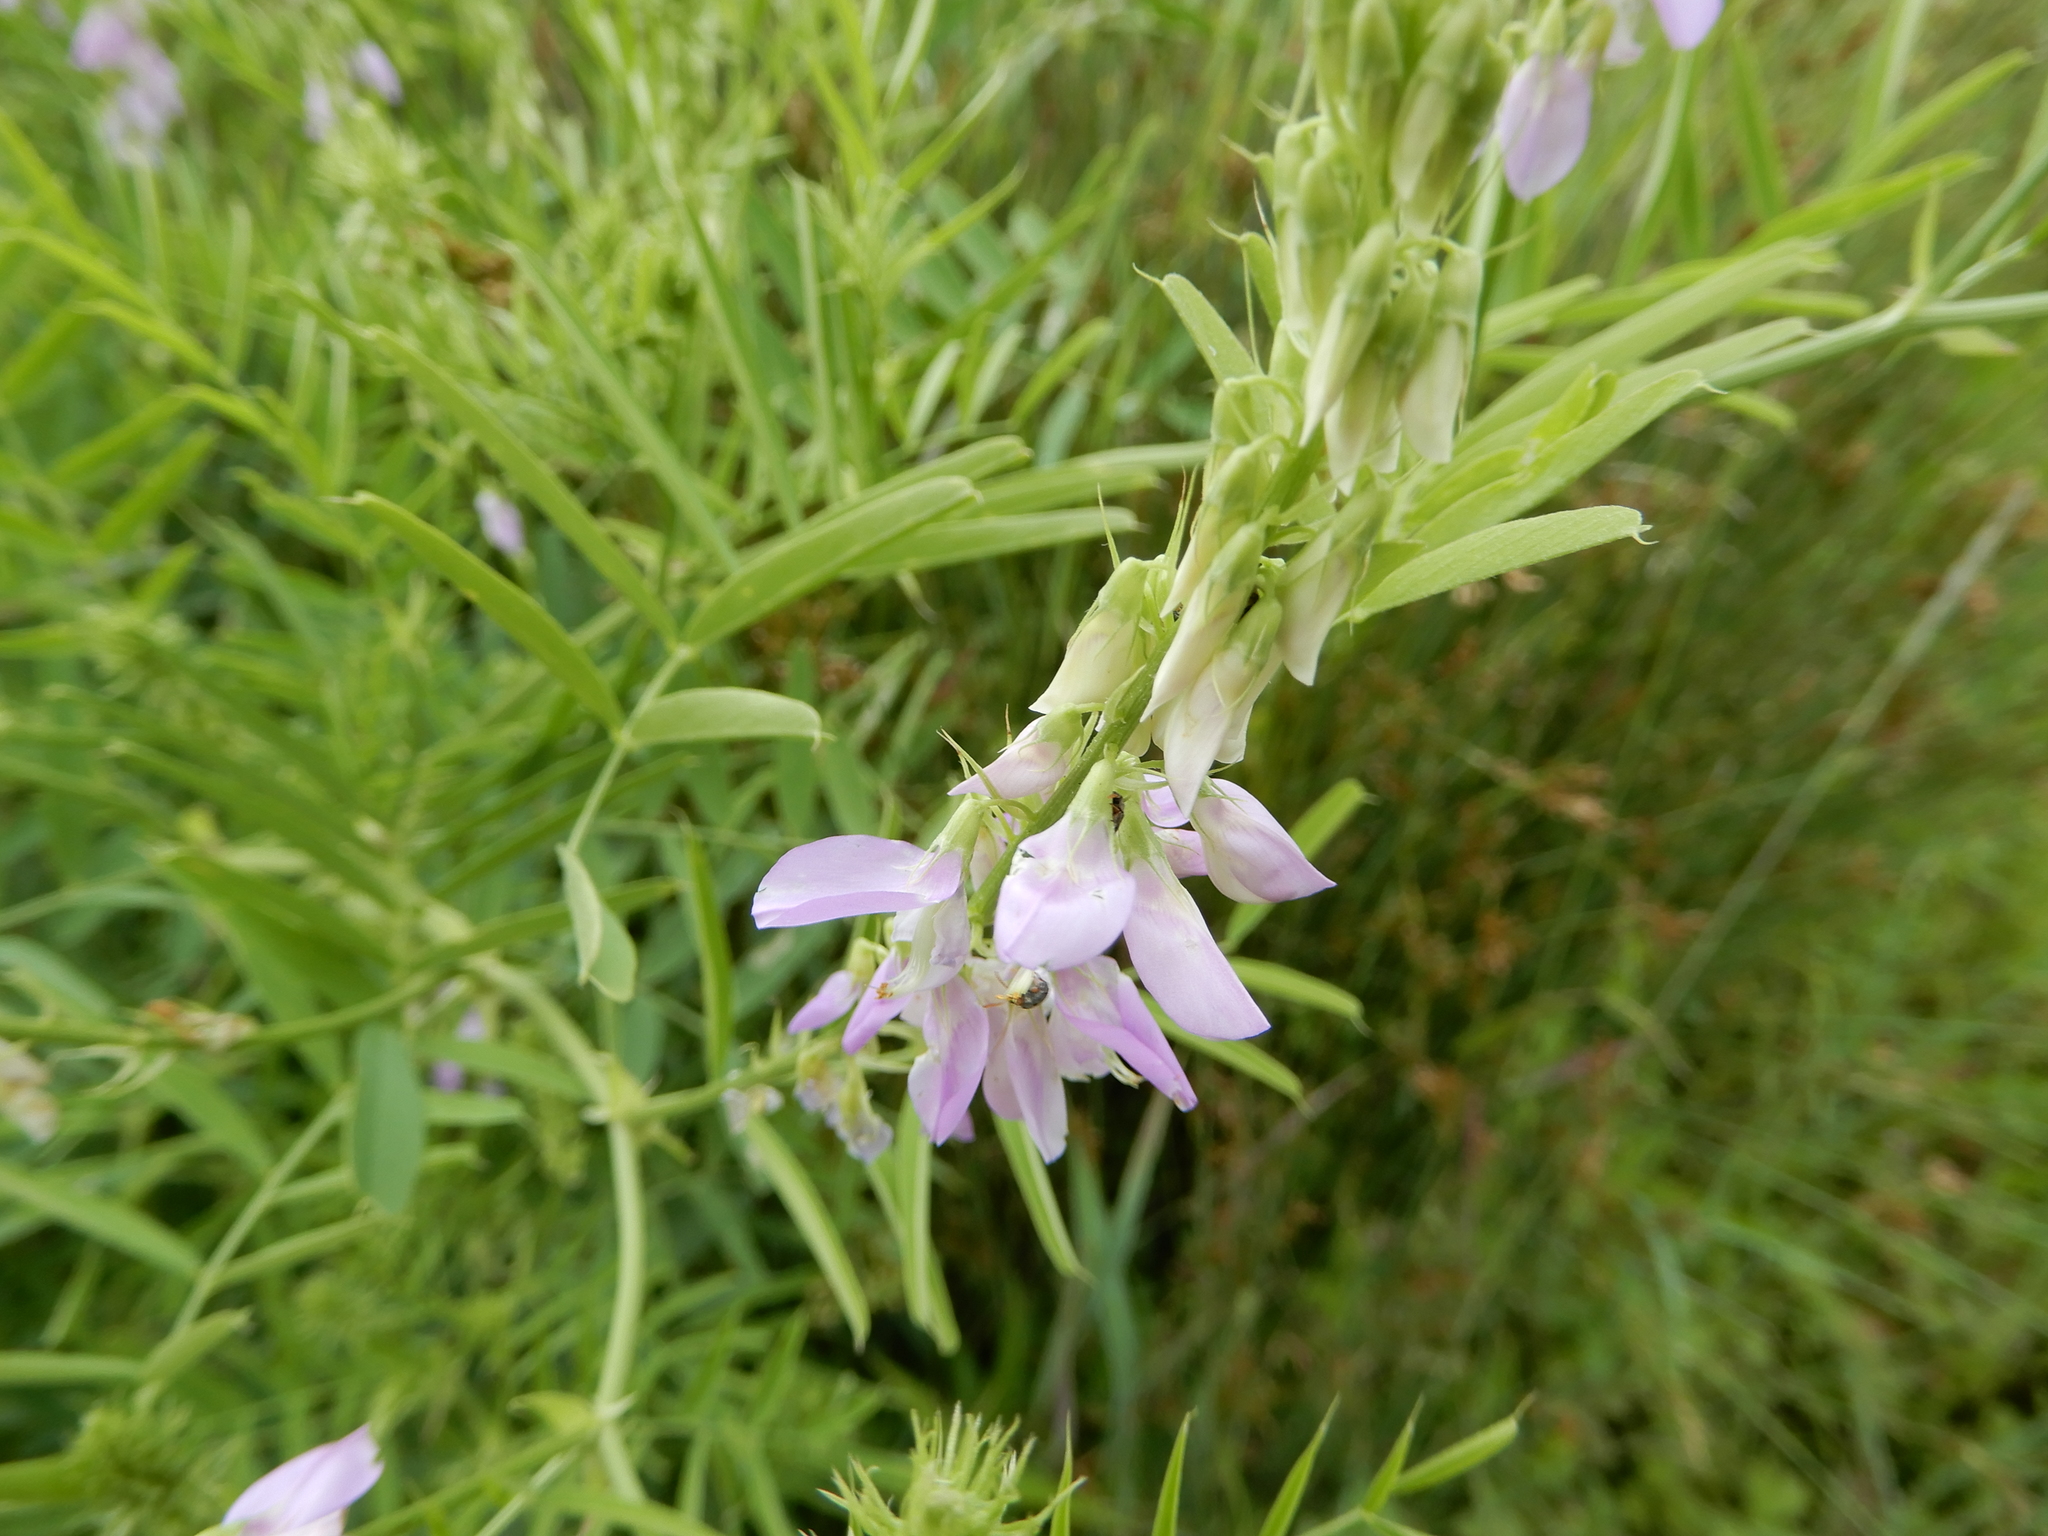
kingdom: Plantae
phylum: Tracheophyta
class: Magnoliopsida
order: Fabales
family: Fabaceae
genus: Galega
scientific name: Galega officinalis
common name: Goat's-rue
